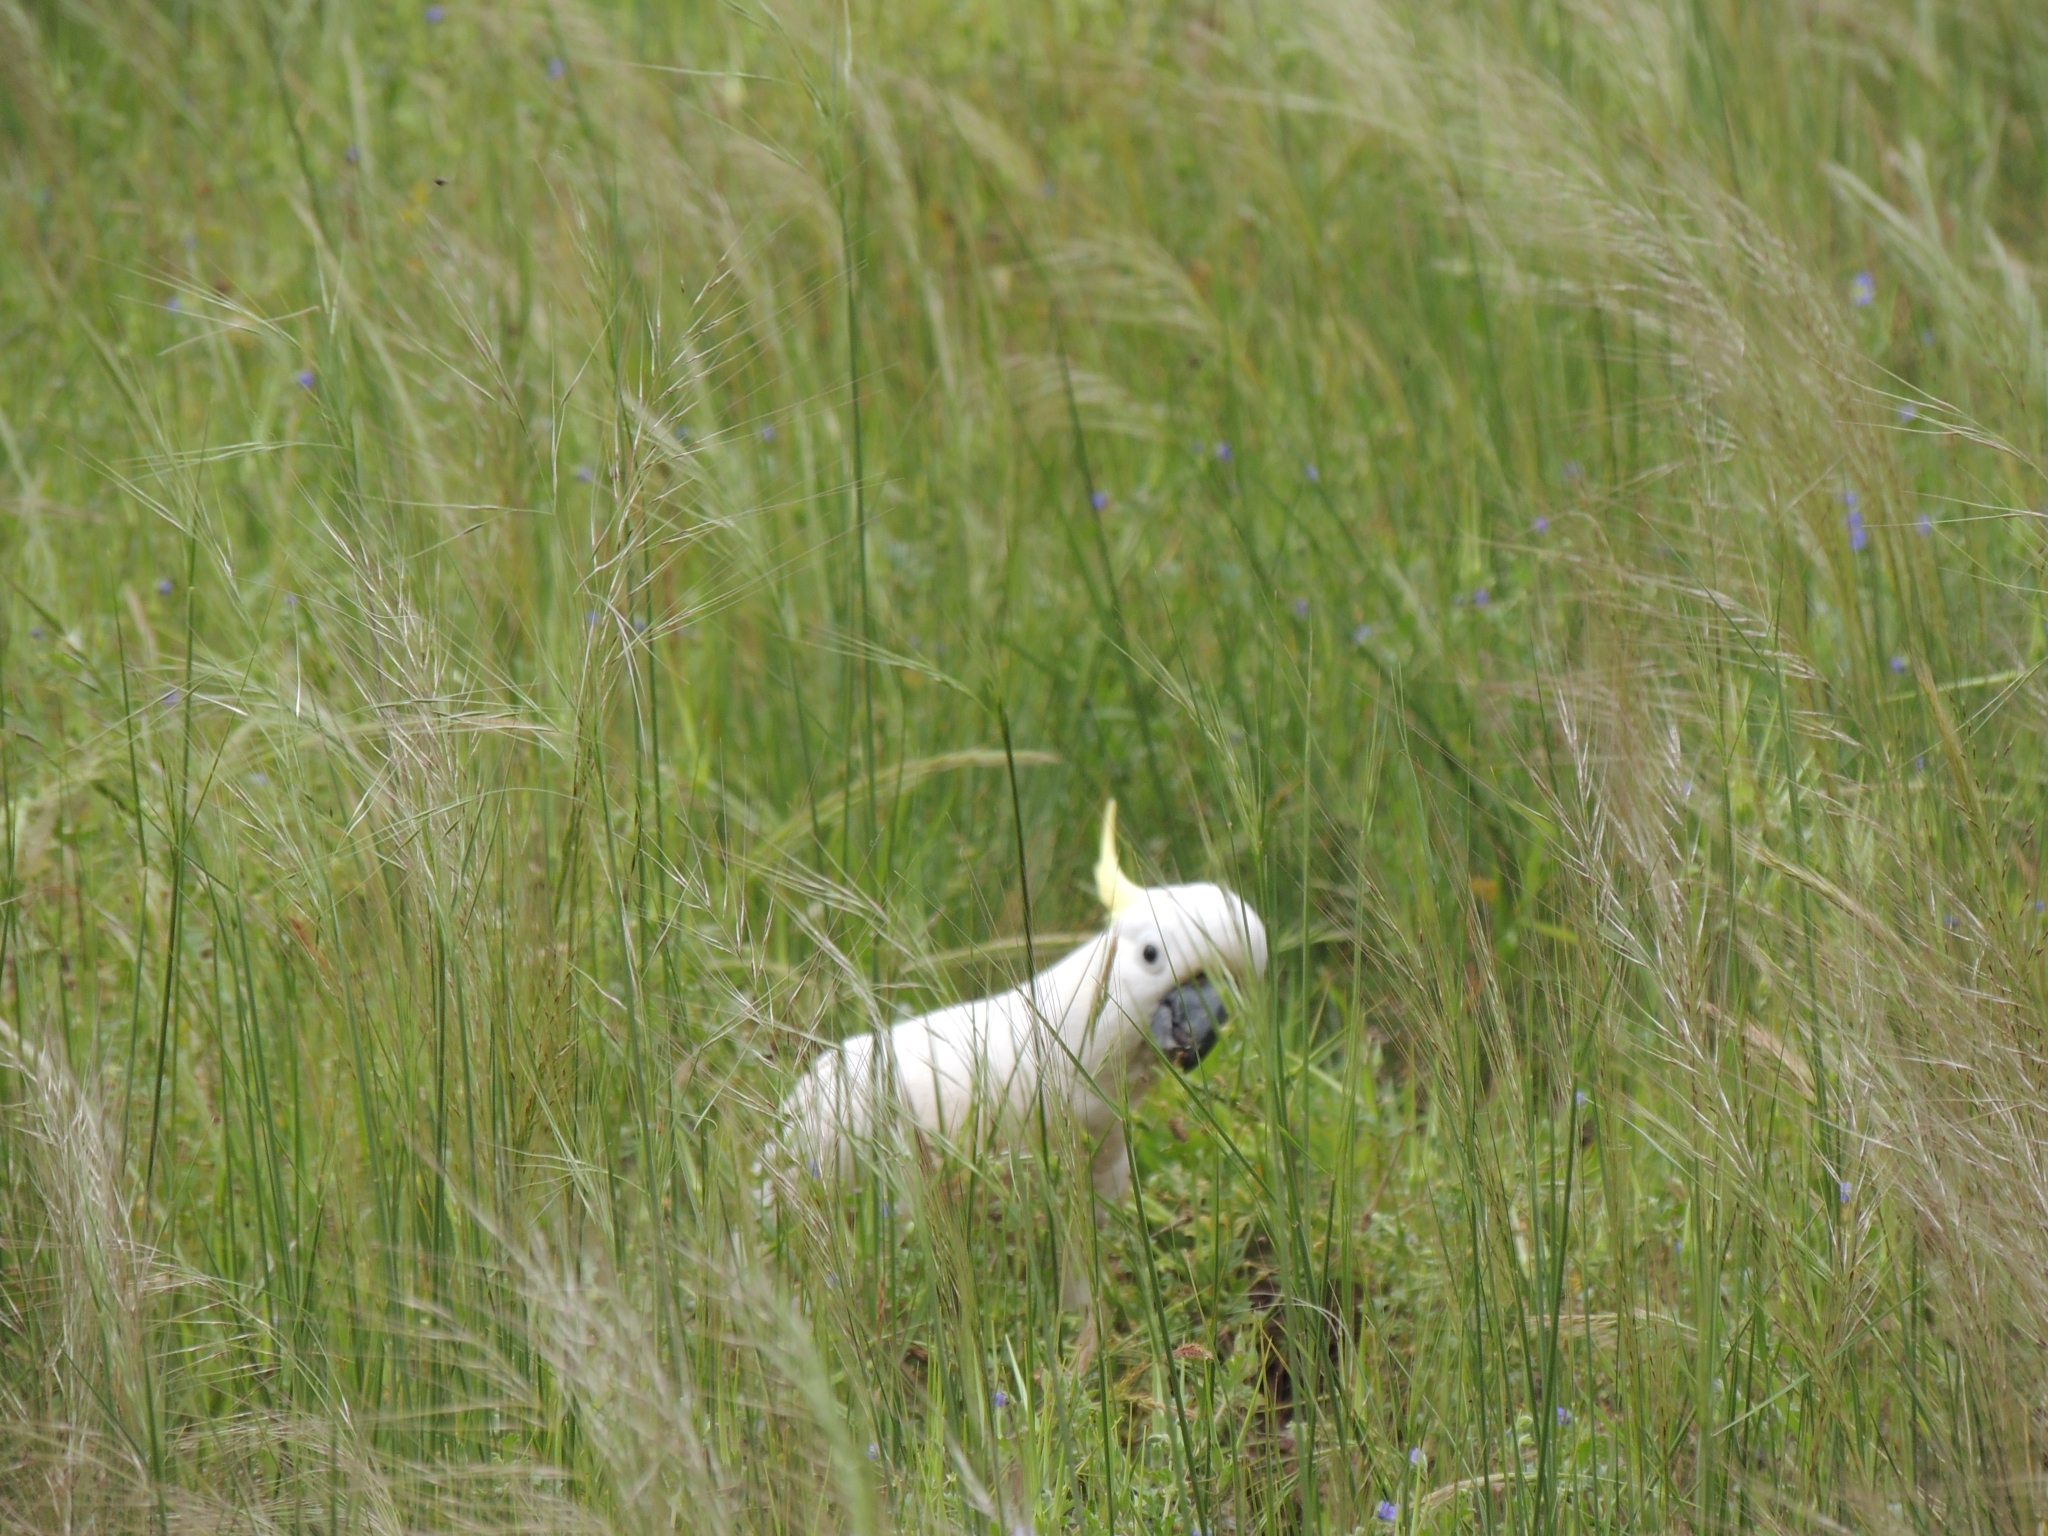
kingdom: Animalia
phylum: Chordata
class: Aves
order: Psittaciformes
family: Psittacidae
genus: Cacatua
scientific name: Cacatua galerita
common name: Sulphur-crested cockatoo
